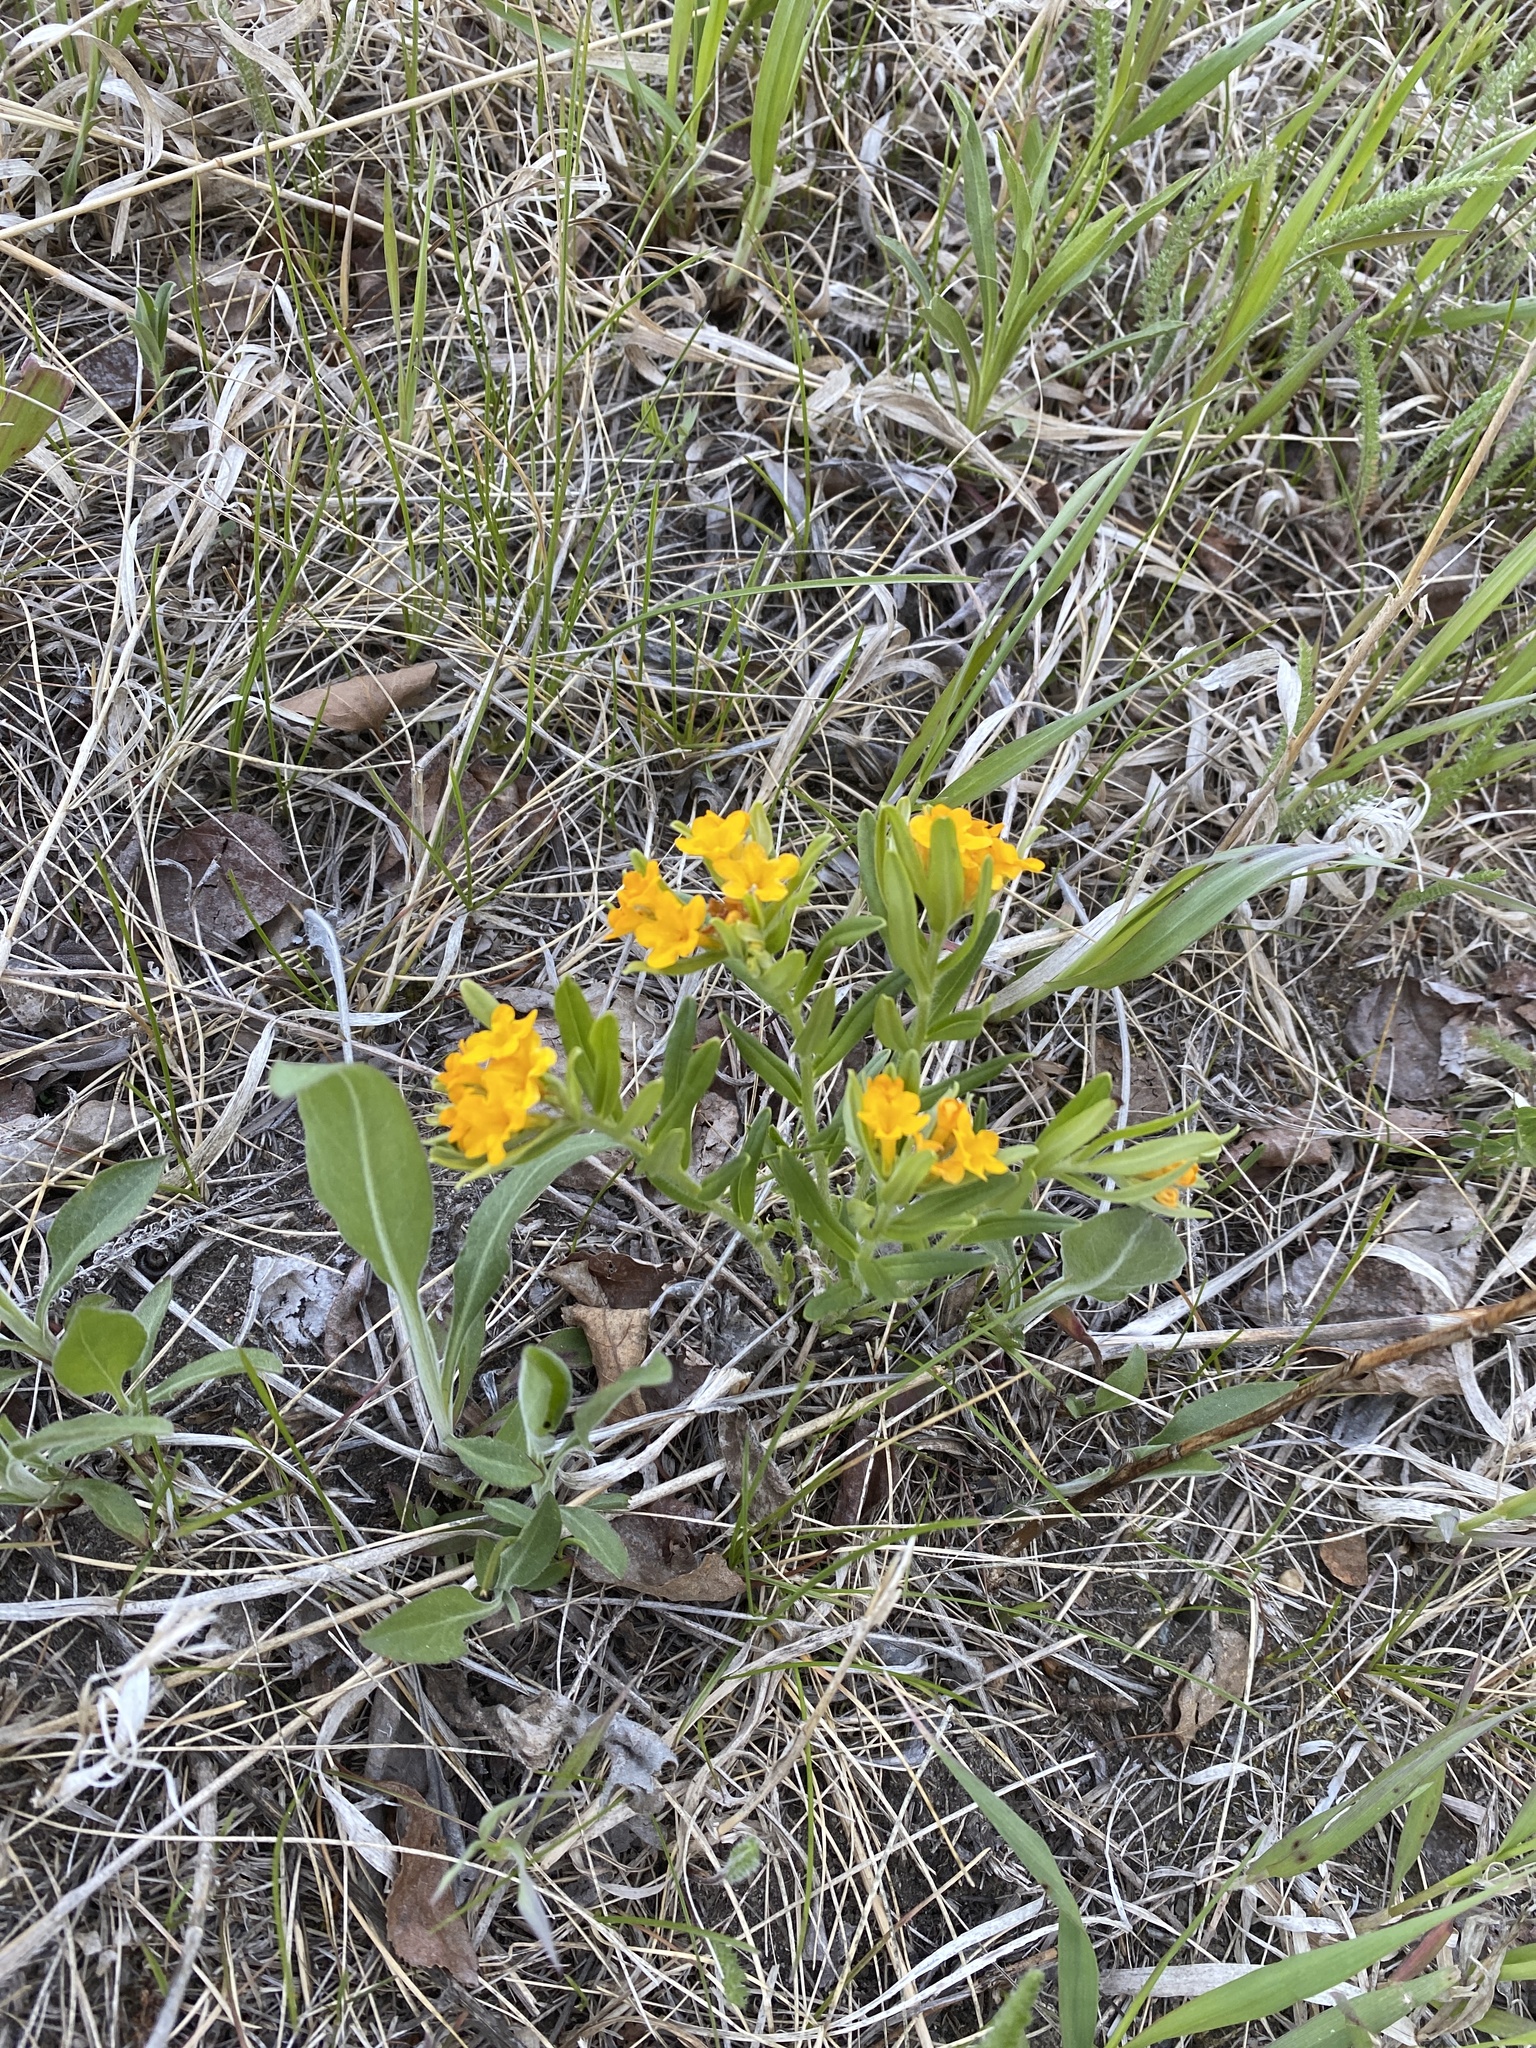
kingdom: Plantae
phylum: Tracheophyta
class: Magnoliopsida
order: Boraginales
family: Boraginaceae
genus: Lithospermum
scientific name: Lithospermum canescens
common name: Hoary puccoon
